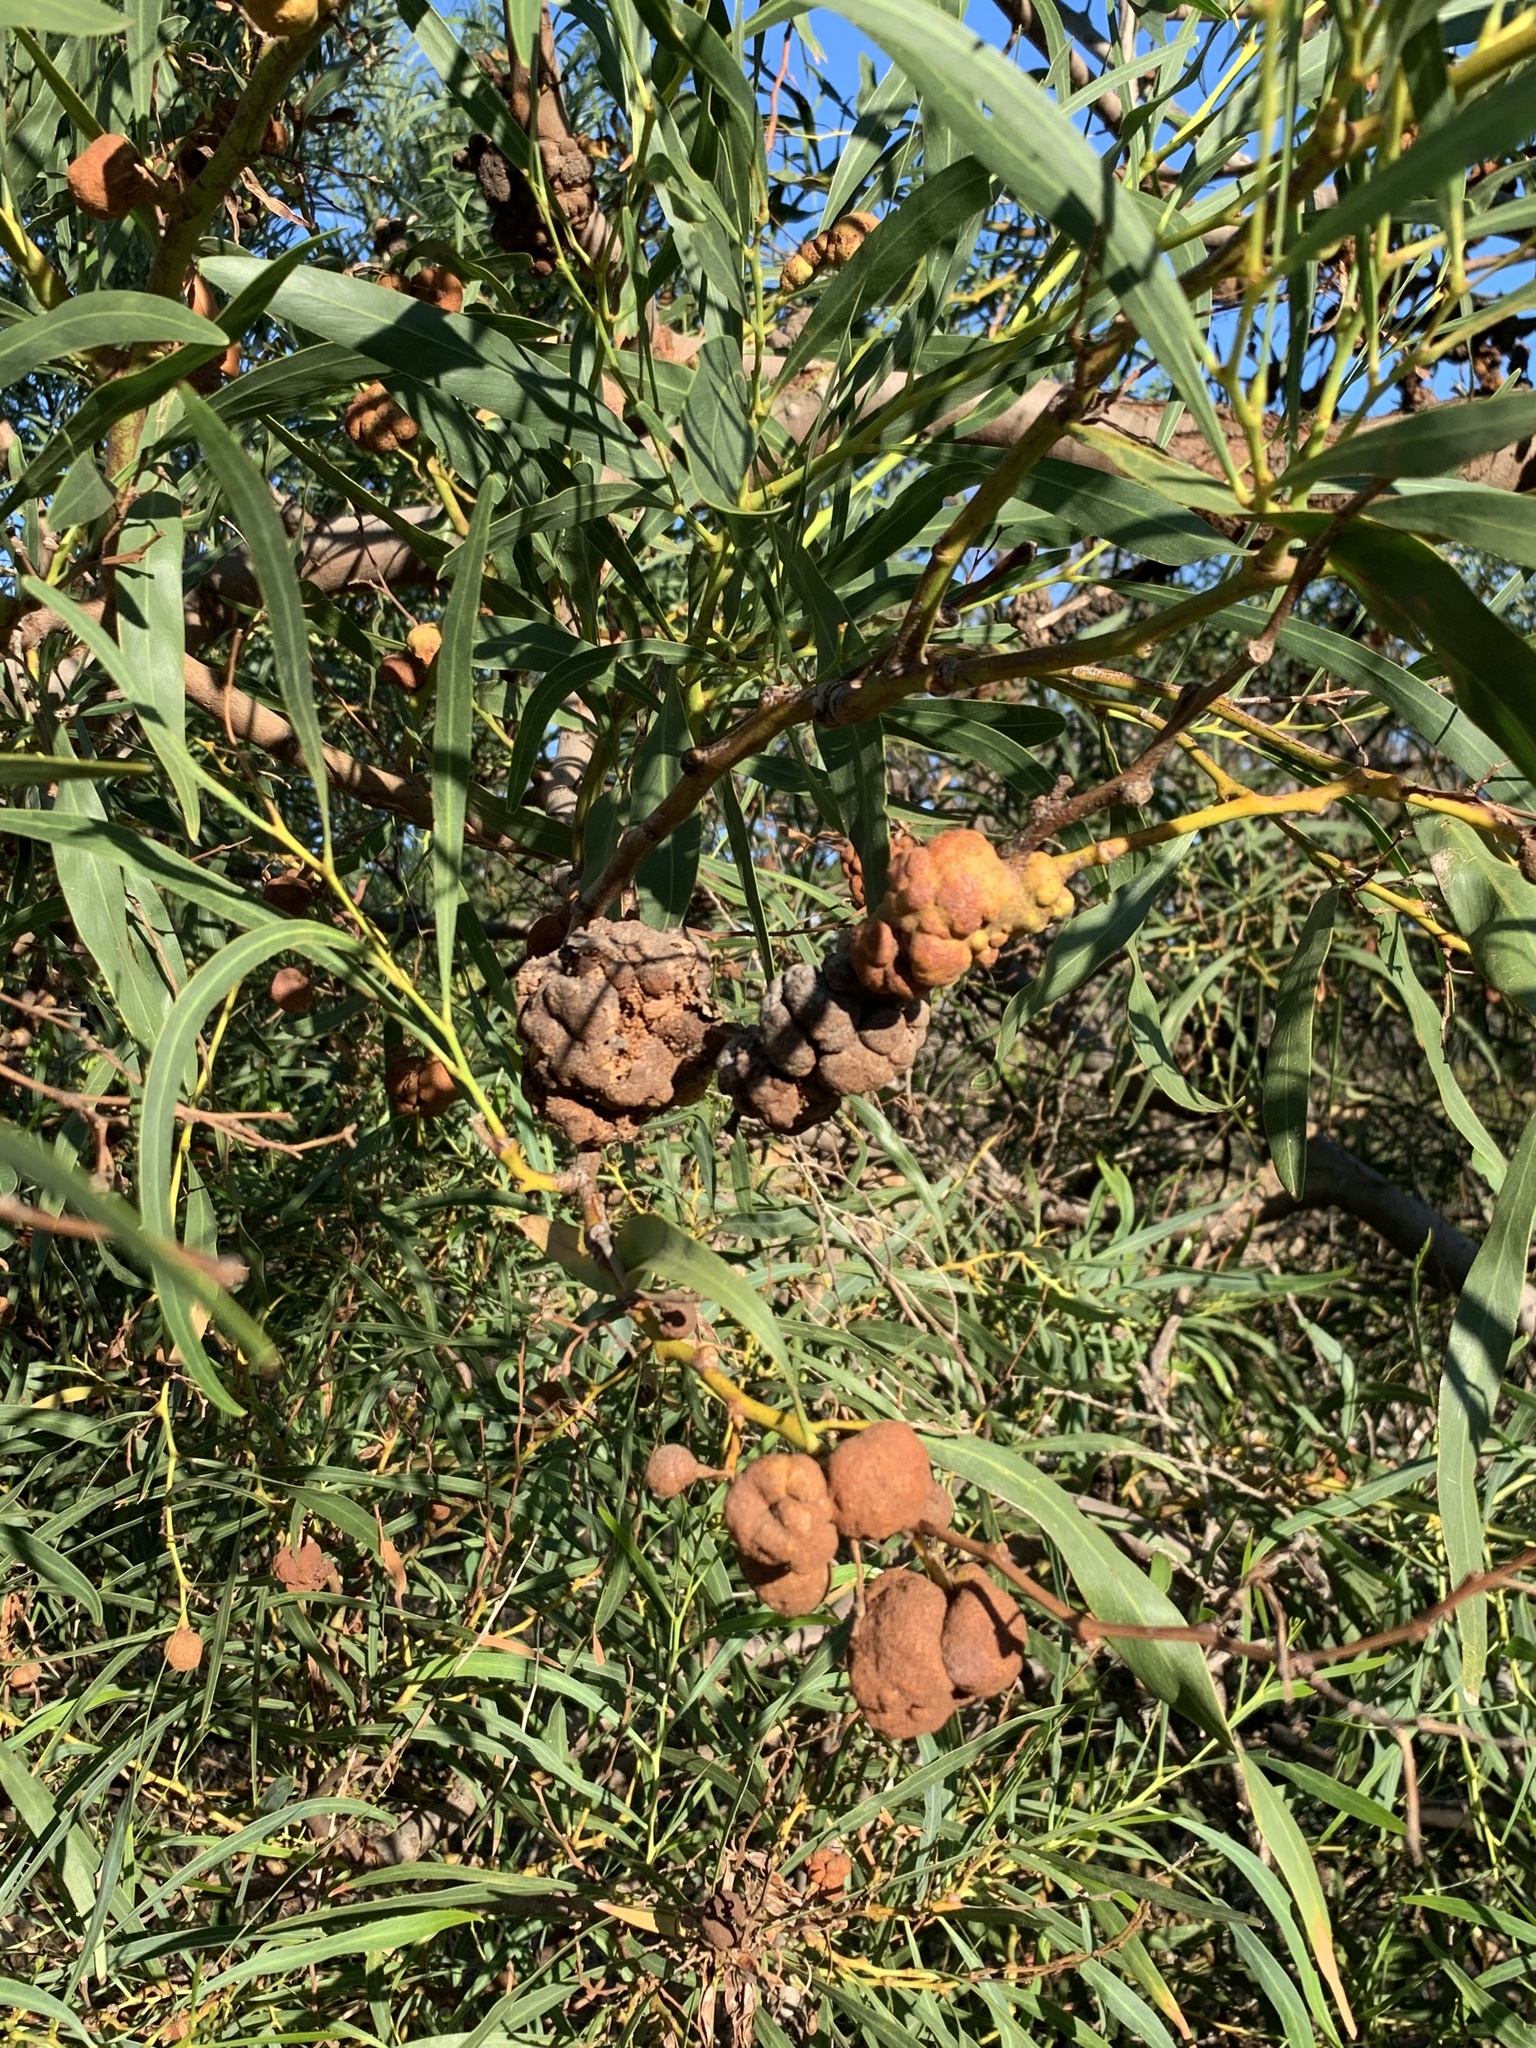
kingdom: Fungi
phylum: Basidiomycota
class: Pucciniomycetes
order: Pucciniales
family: Uromycladiaceae
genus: Uromycladium
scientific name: Uromycladium morrisii
